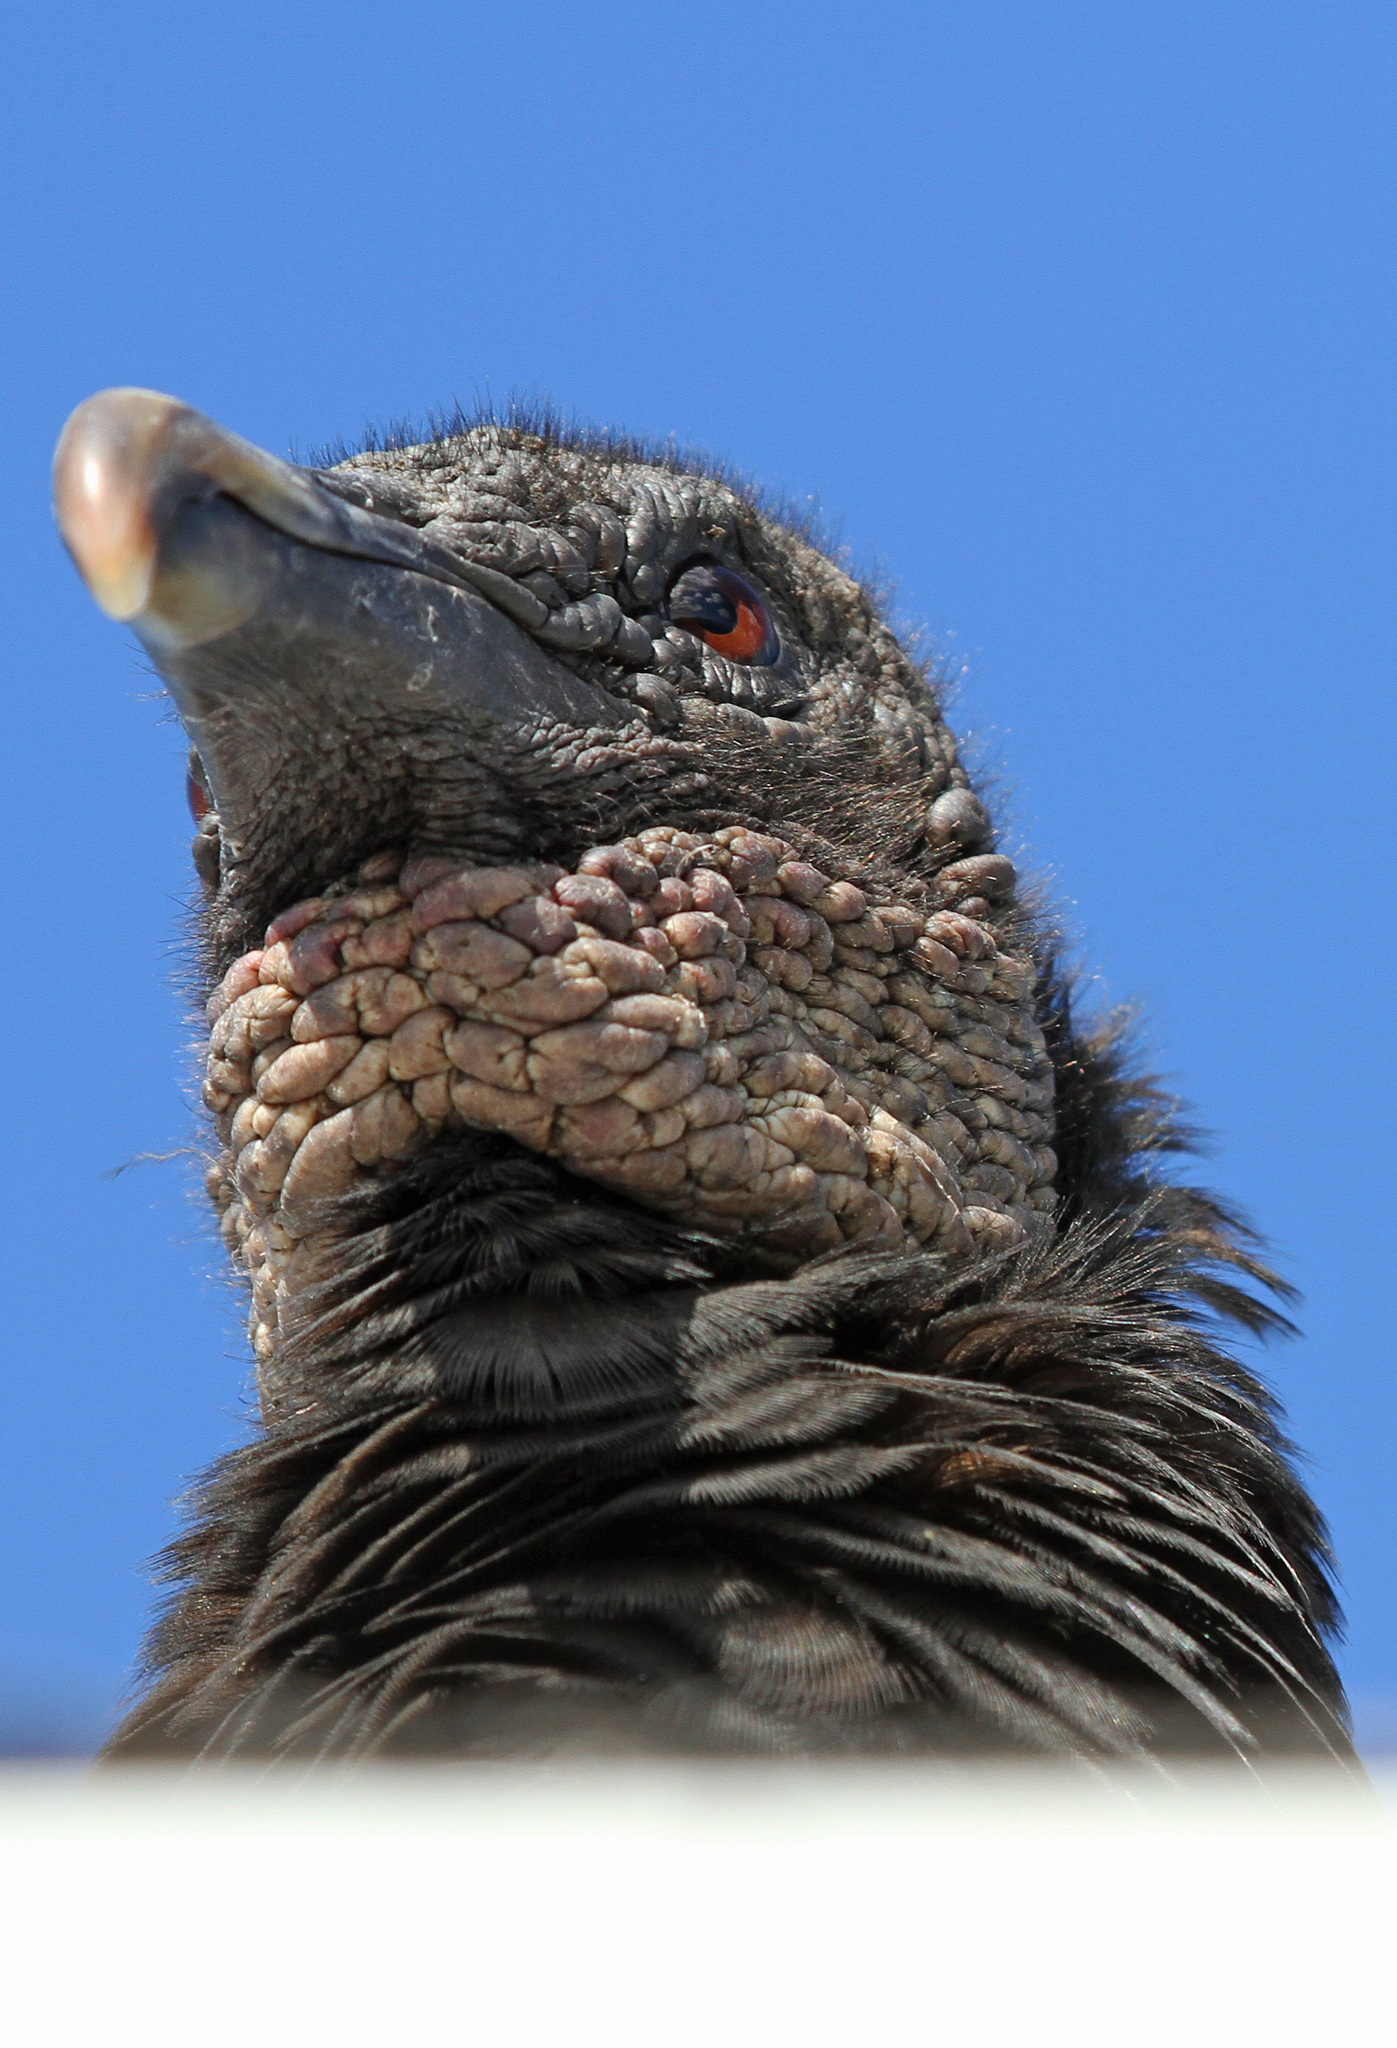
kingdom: Animalia
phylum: Chordata
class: Aves
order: Accipitriformes
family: Cathartidae
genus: Coragyps
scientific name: Coragyps atratus
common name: Black vulture
